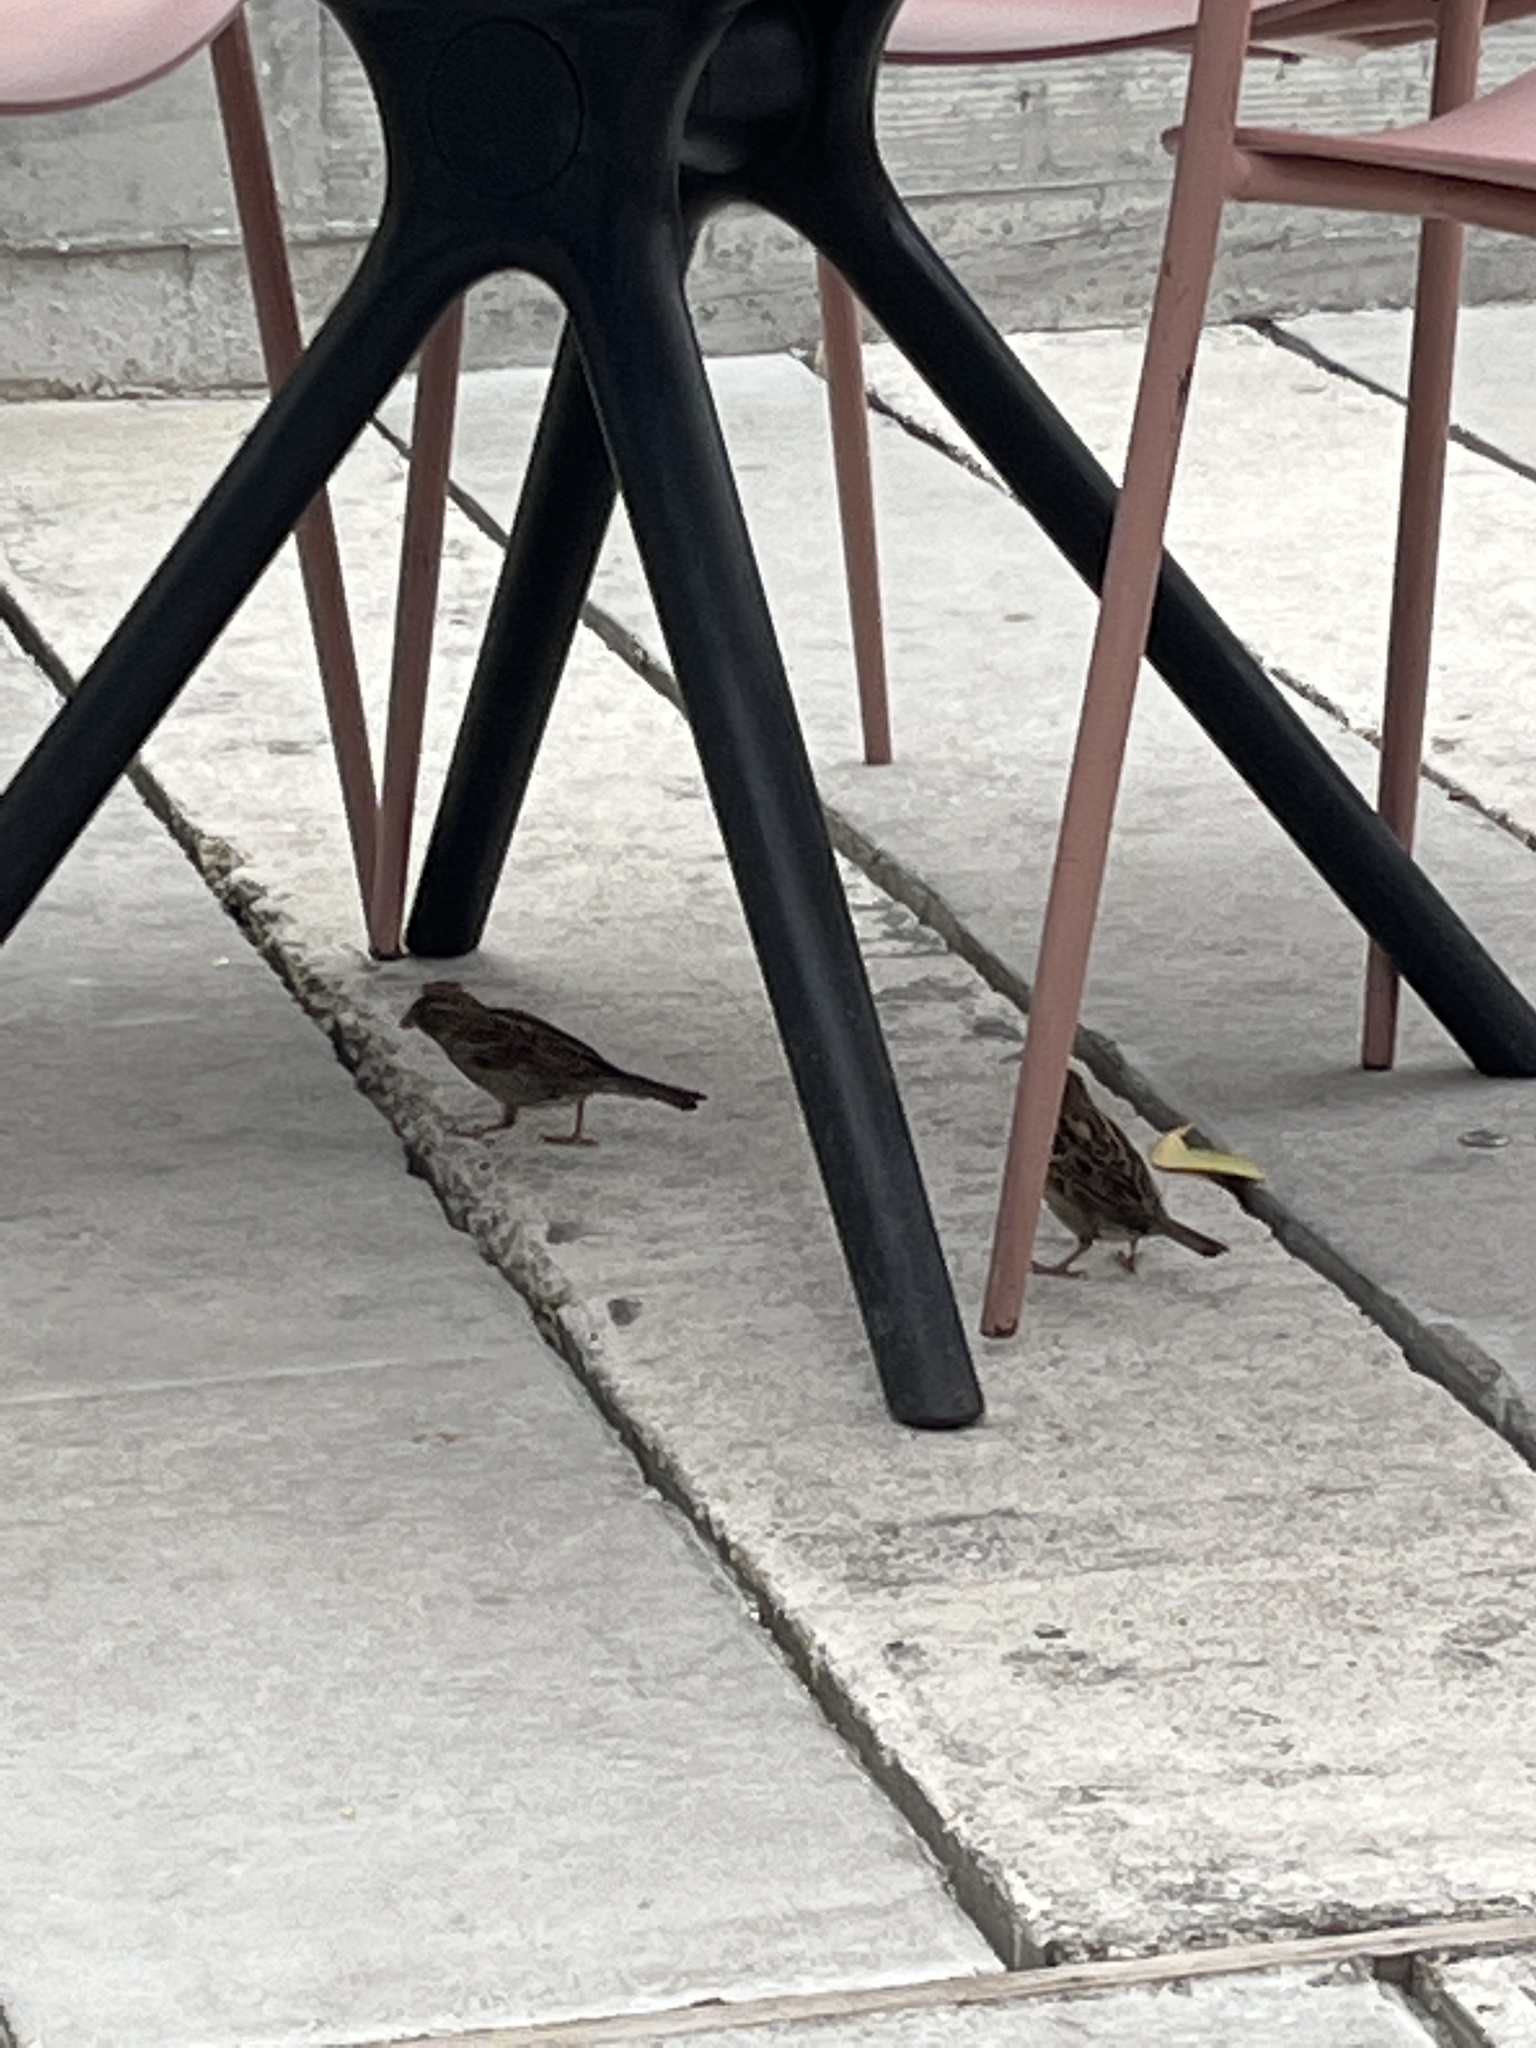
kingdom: Animalia
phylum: Chordata
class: Aves
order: Passeriformes
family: Passeridae
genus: Passer
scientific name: Passer domesticus
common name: House sparrow
